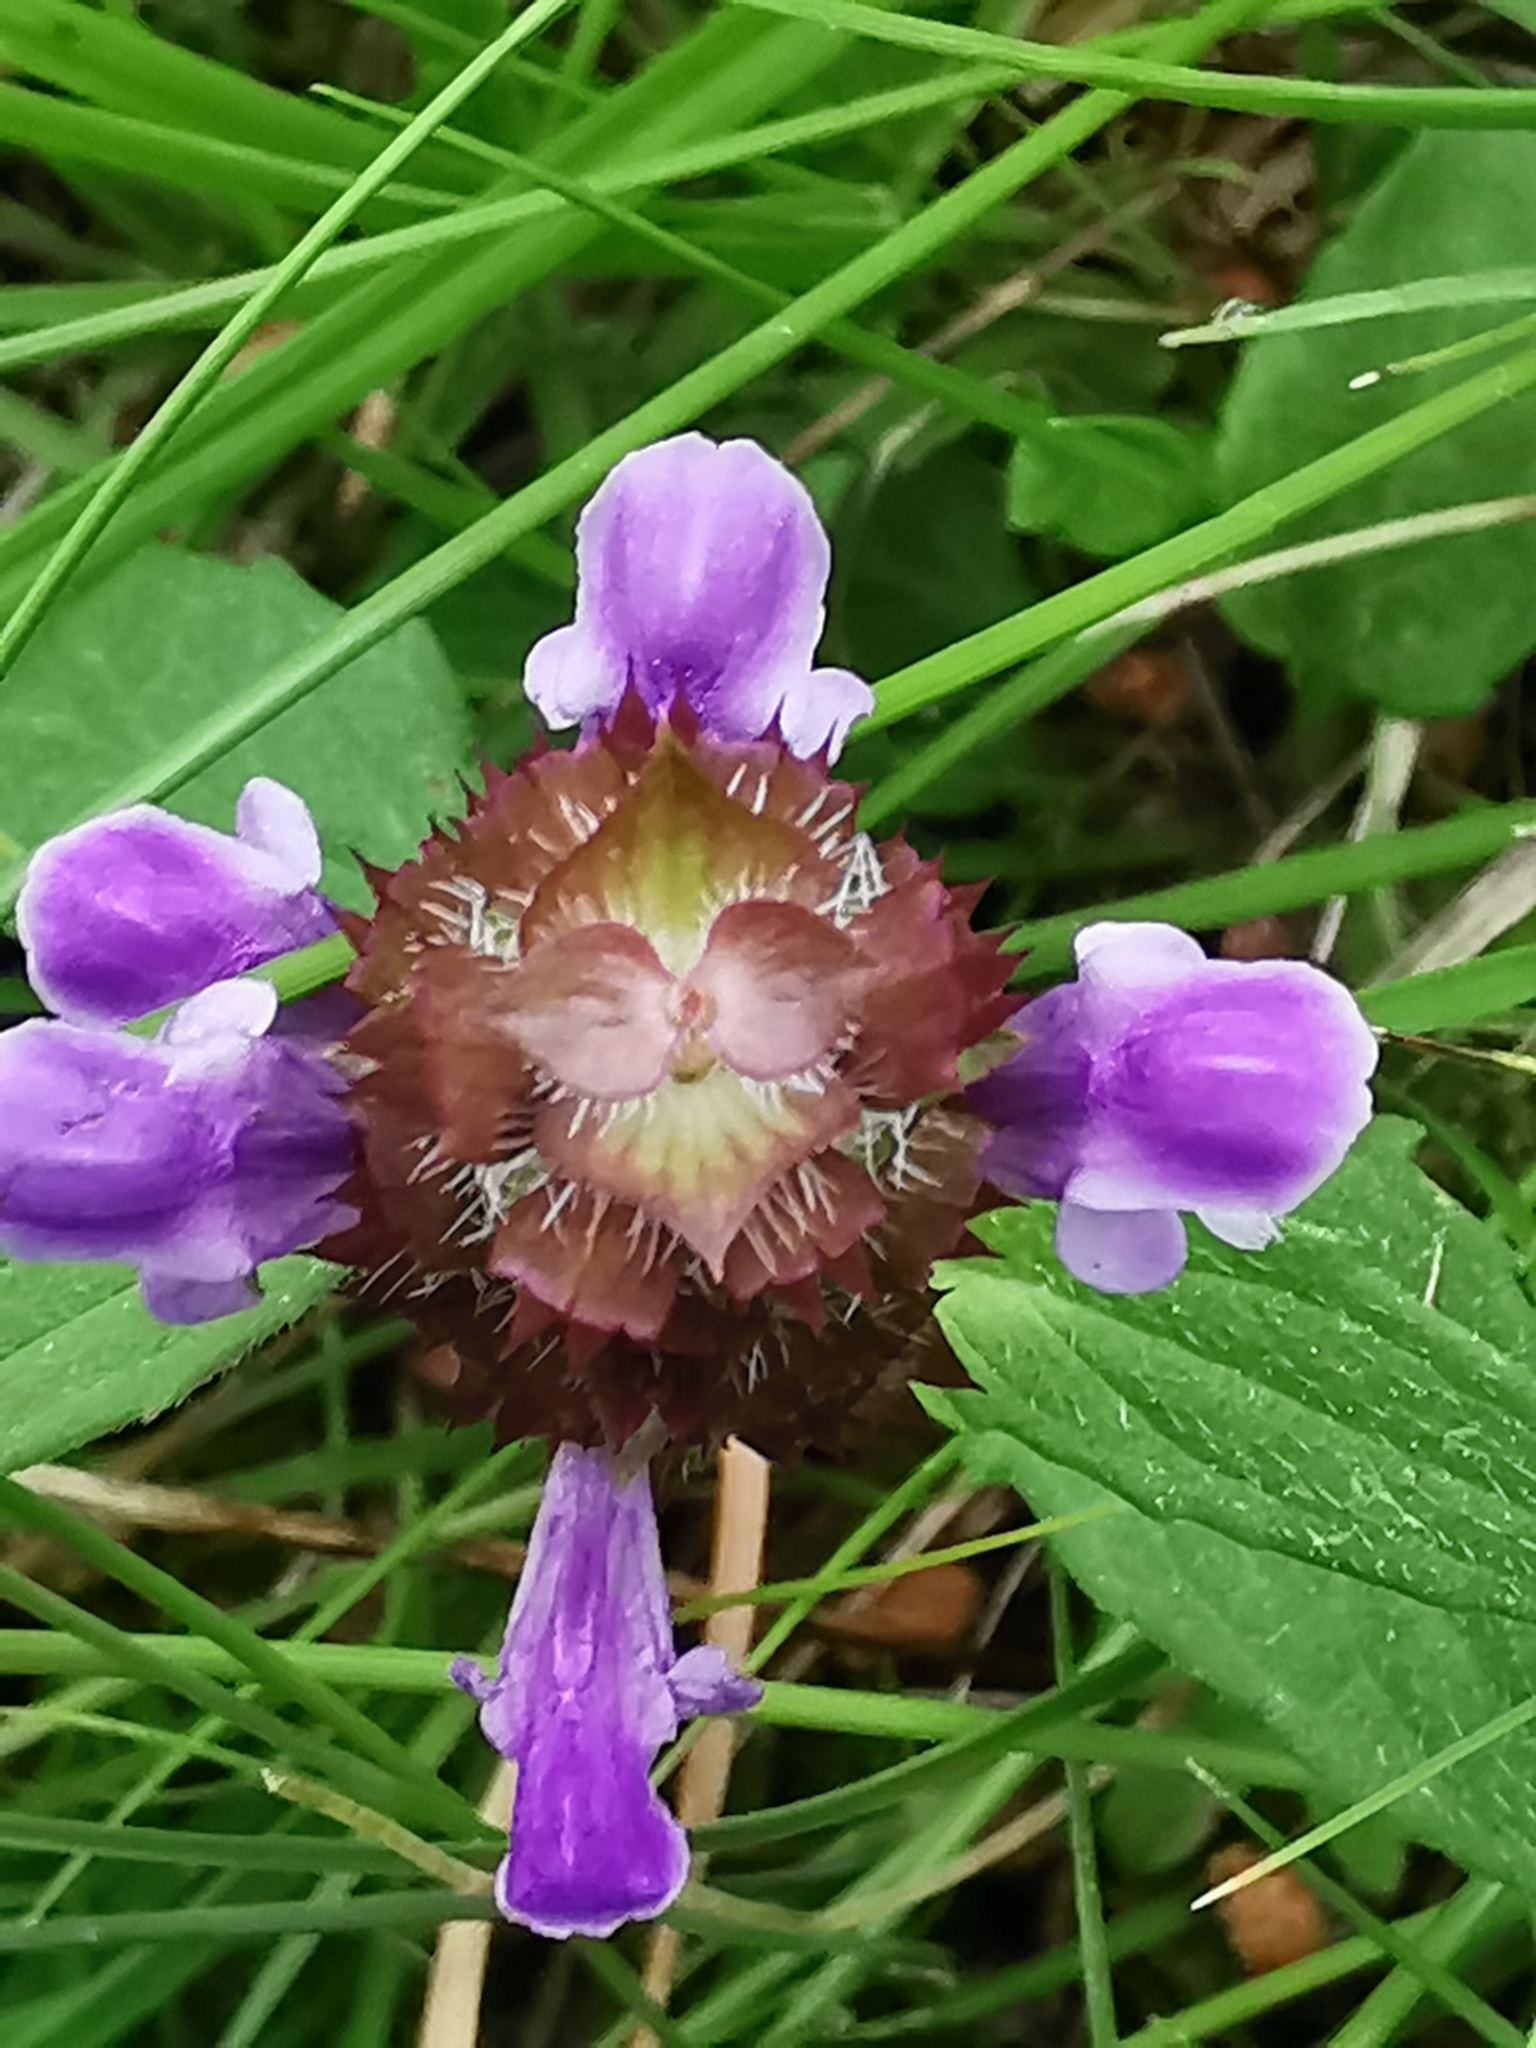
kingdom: Plantae
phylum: Tracheophyta
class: Magnoliopsida
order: Lamiales
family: Lamiaceae
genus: Prunella
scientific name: Prunella vulgaris
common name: Heal-all
